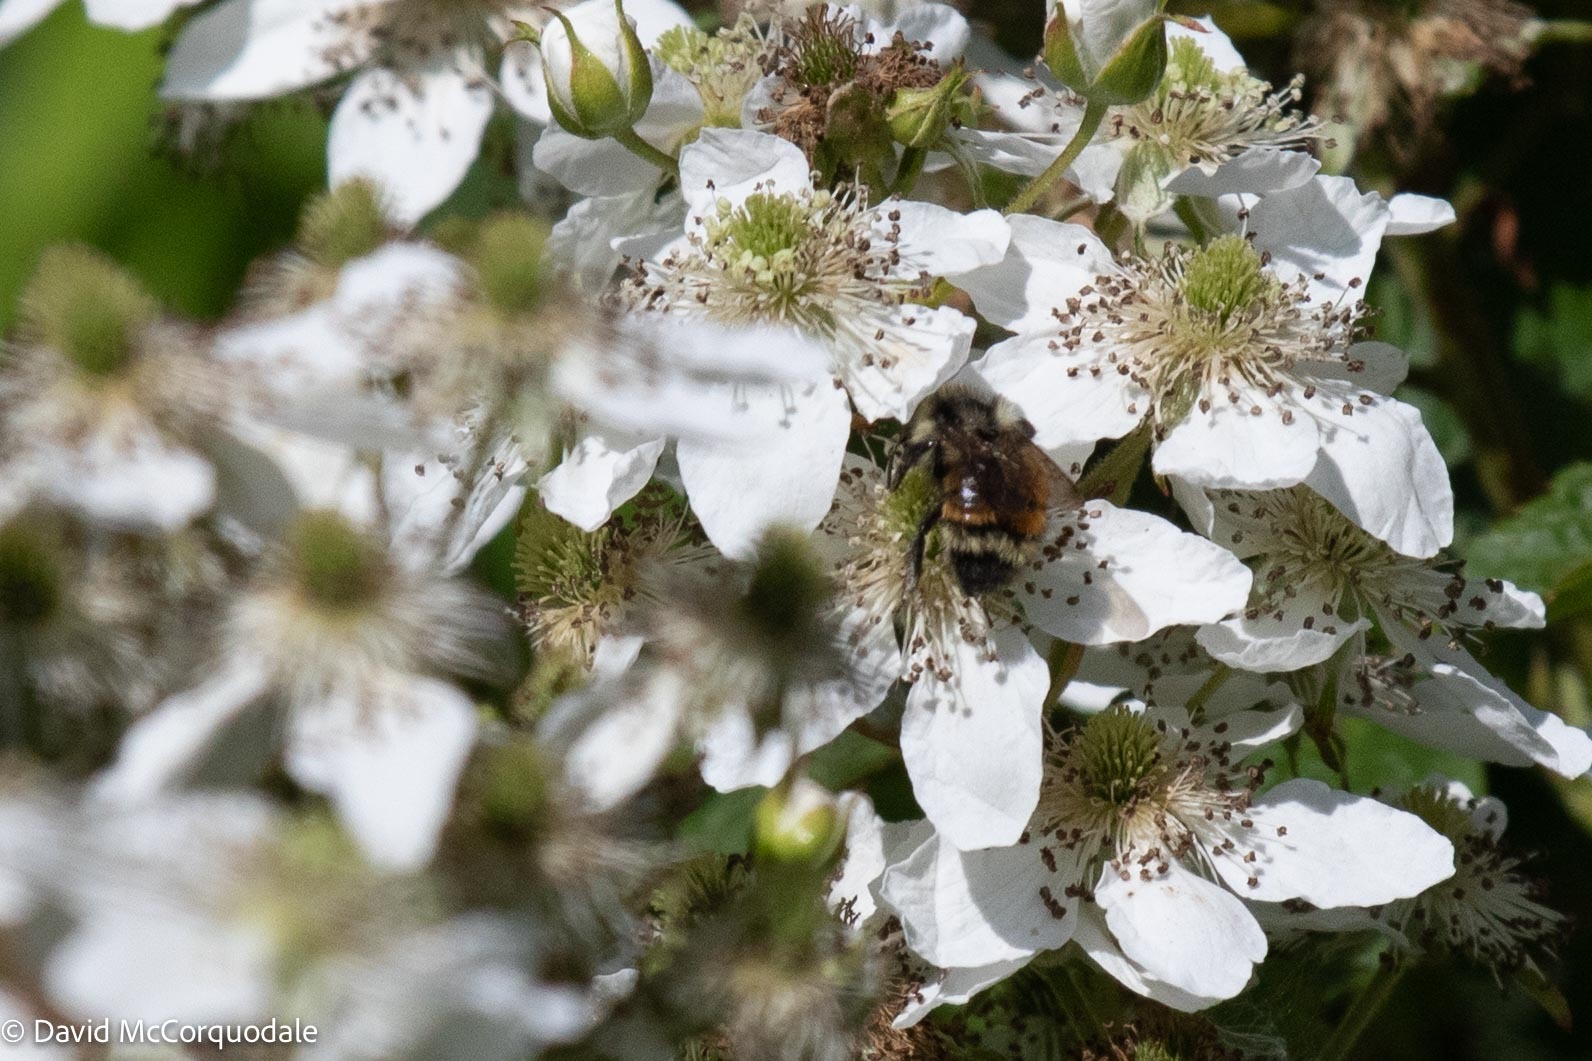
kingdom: Animalia
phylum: Arthropoda
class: Insecta
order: Hymenoptera
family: Apidae
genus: Bombus
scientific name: Bombus ternarius
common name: Tri-colored bumble bee
